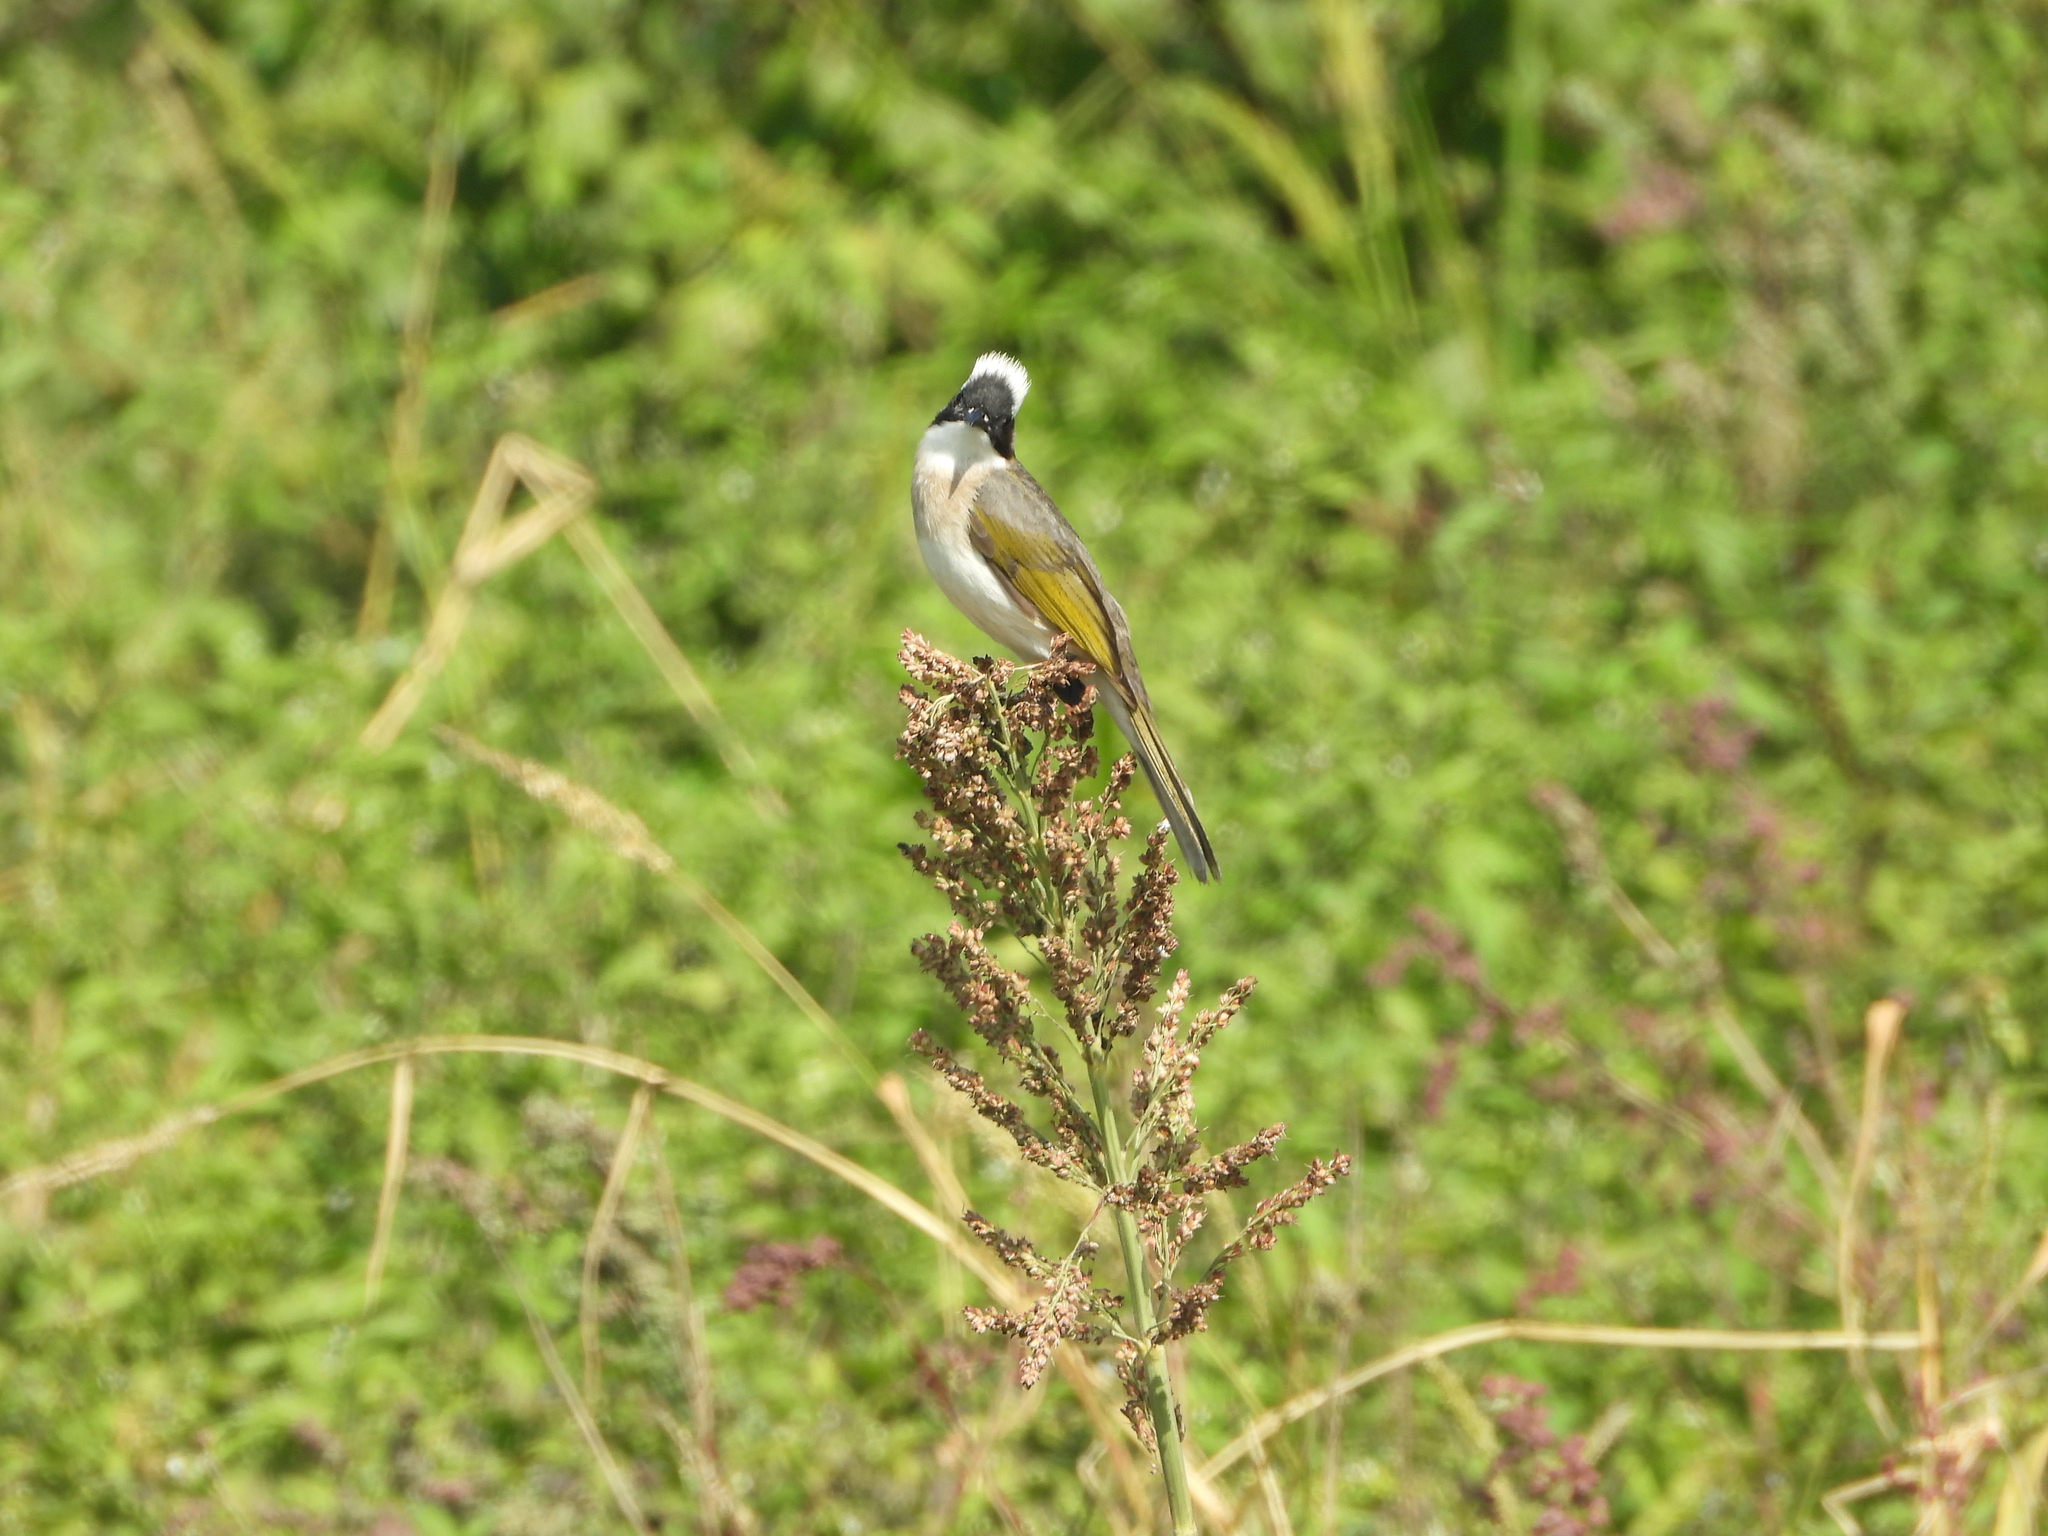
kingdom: Animalia
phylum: Chordata
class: Aves
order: Passeriformes
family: Pycnonotidae
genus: Pycnonotus
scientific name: Pycnonotus sinensis
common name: Light-vented bulbul
